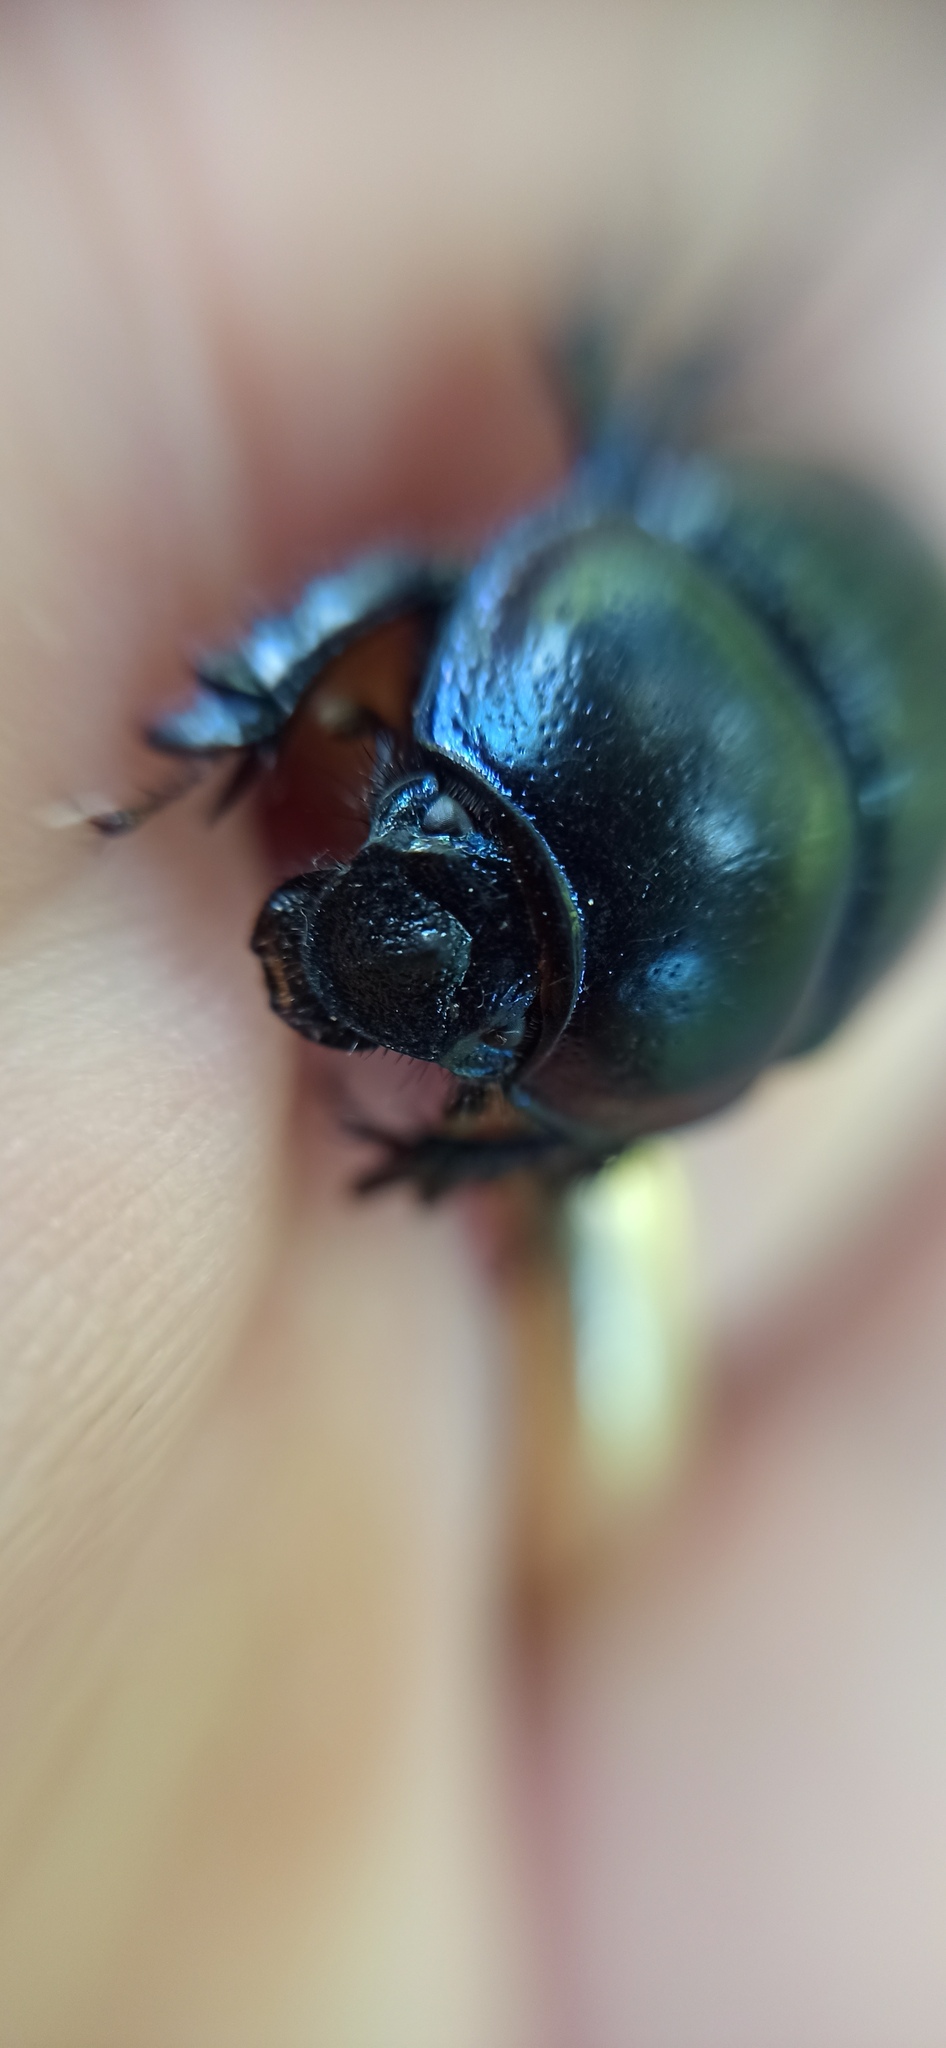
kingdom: Animalia
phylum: Arthropoda
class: Insecta
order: Coleoptera
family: Geotrupidae
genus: Anoplotrupes
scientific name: Anoplotrupes stercorosus
